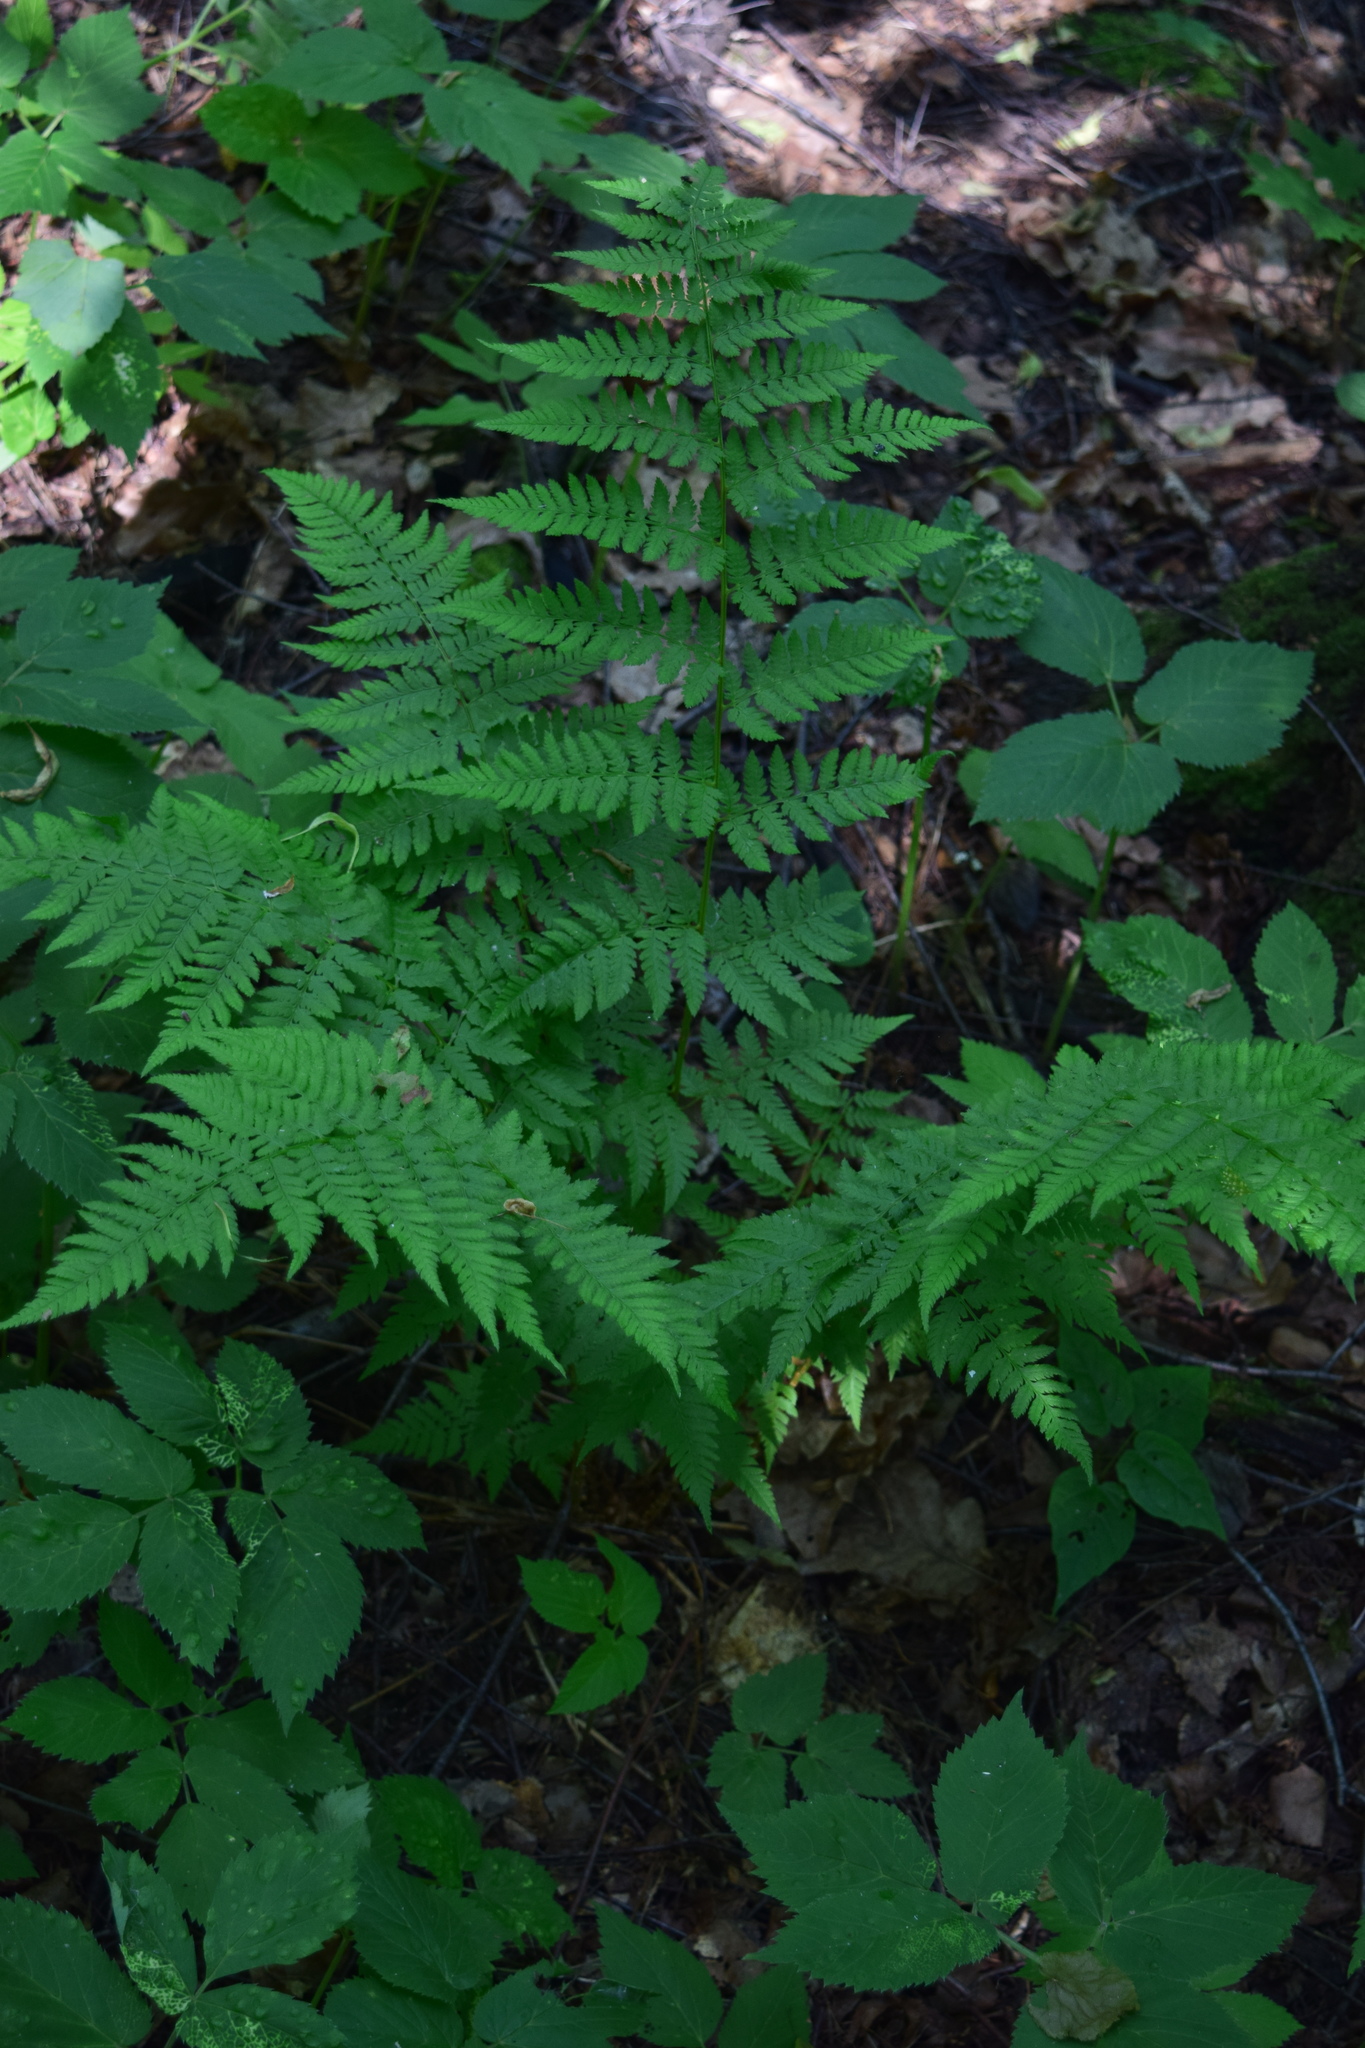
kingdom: Plantae
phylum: Tracheophyta
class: Polypodiopsida
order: Polypodiales
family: Dryopteridaceae
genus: Dryopteris
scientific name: Dryopteris carthusiana
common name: Narrow buckler-fern
